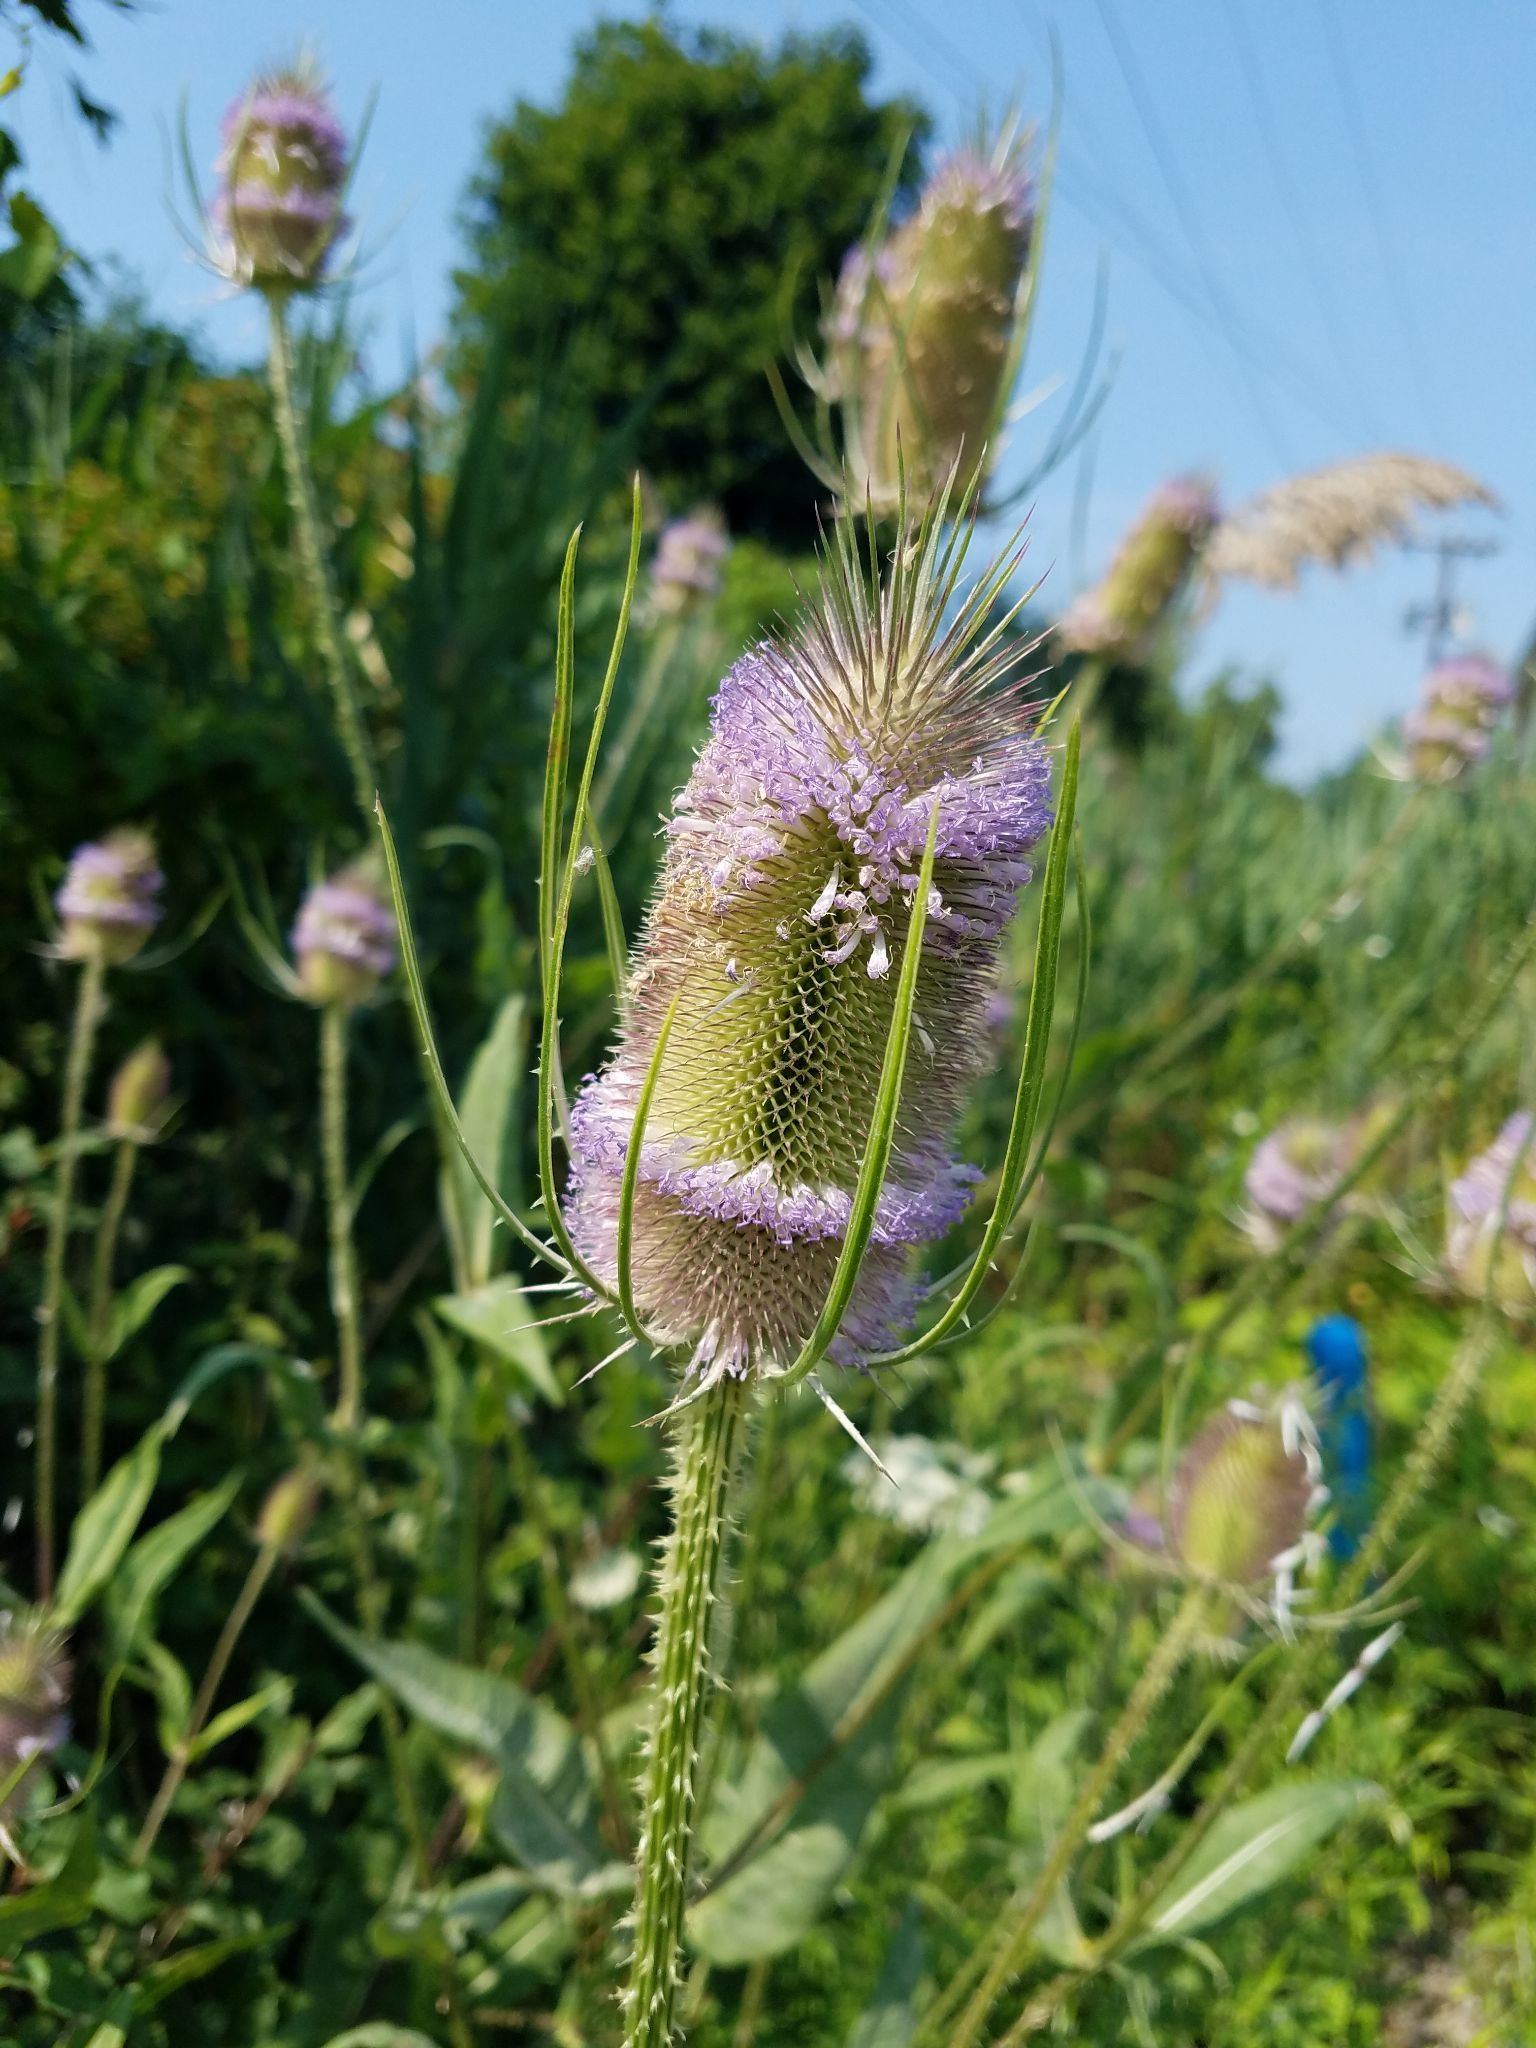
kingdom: Plantae
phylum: Tracheophyta
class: Magnoliopsida
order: Dipsacales
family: Caprifoliaceae
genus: Dipsacus
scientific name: Dipsacus fullonum
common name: Teasel
